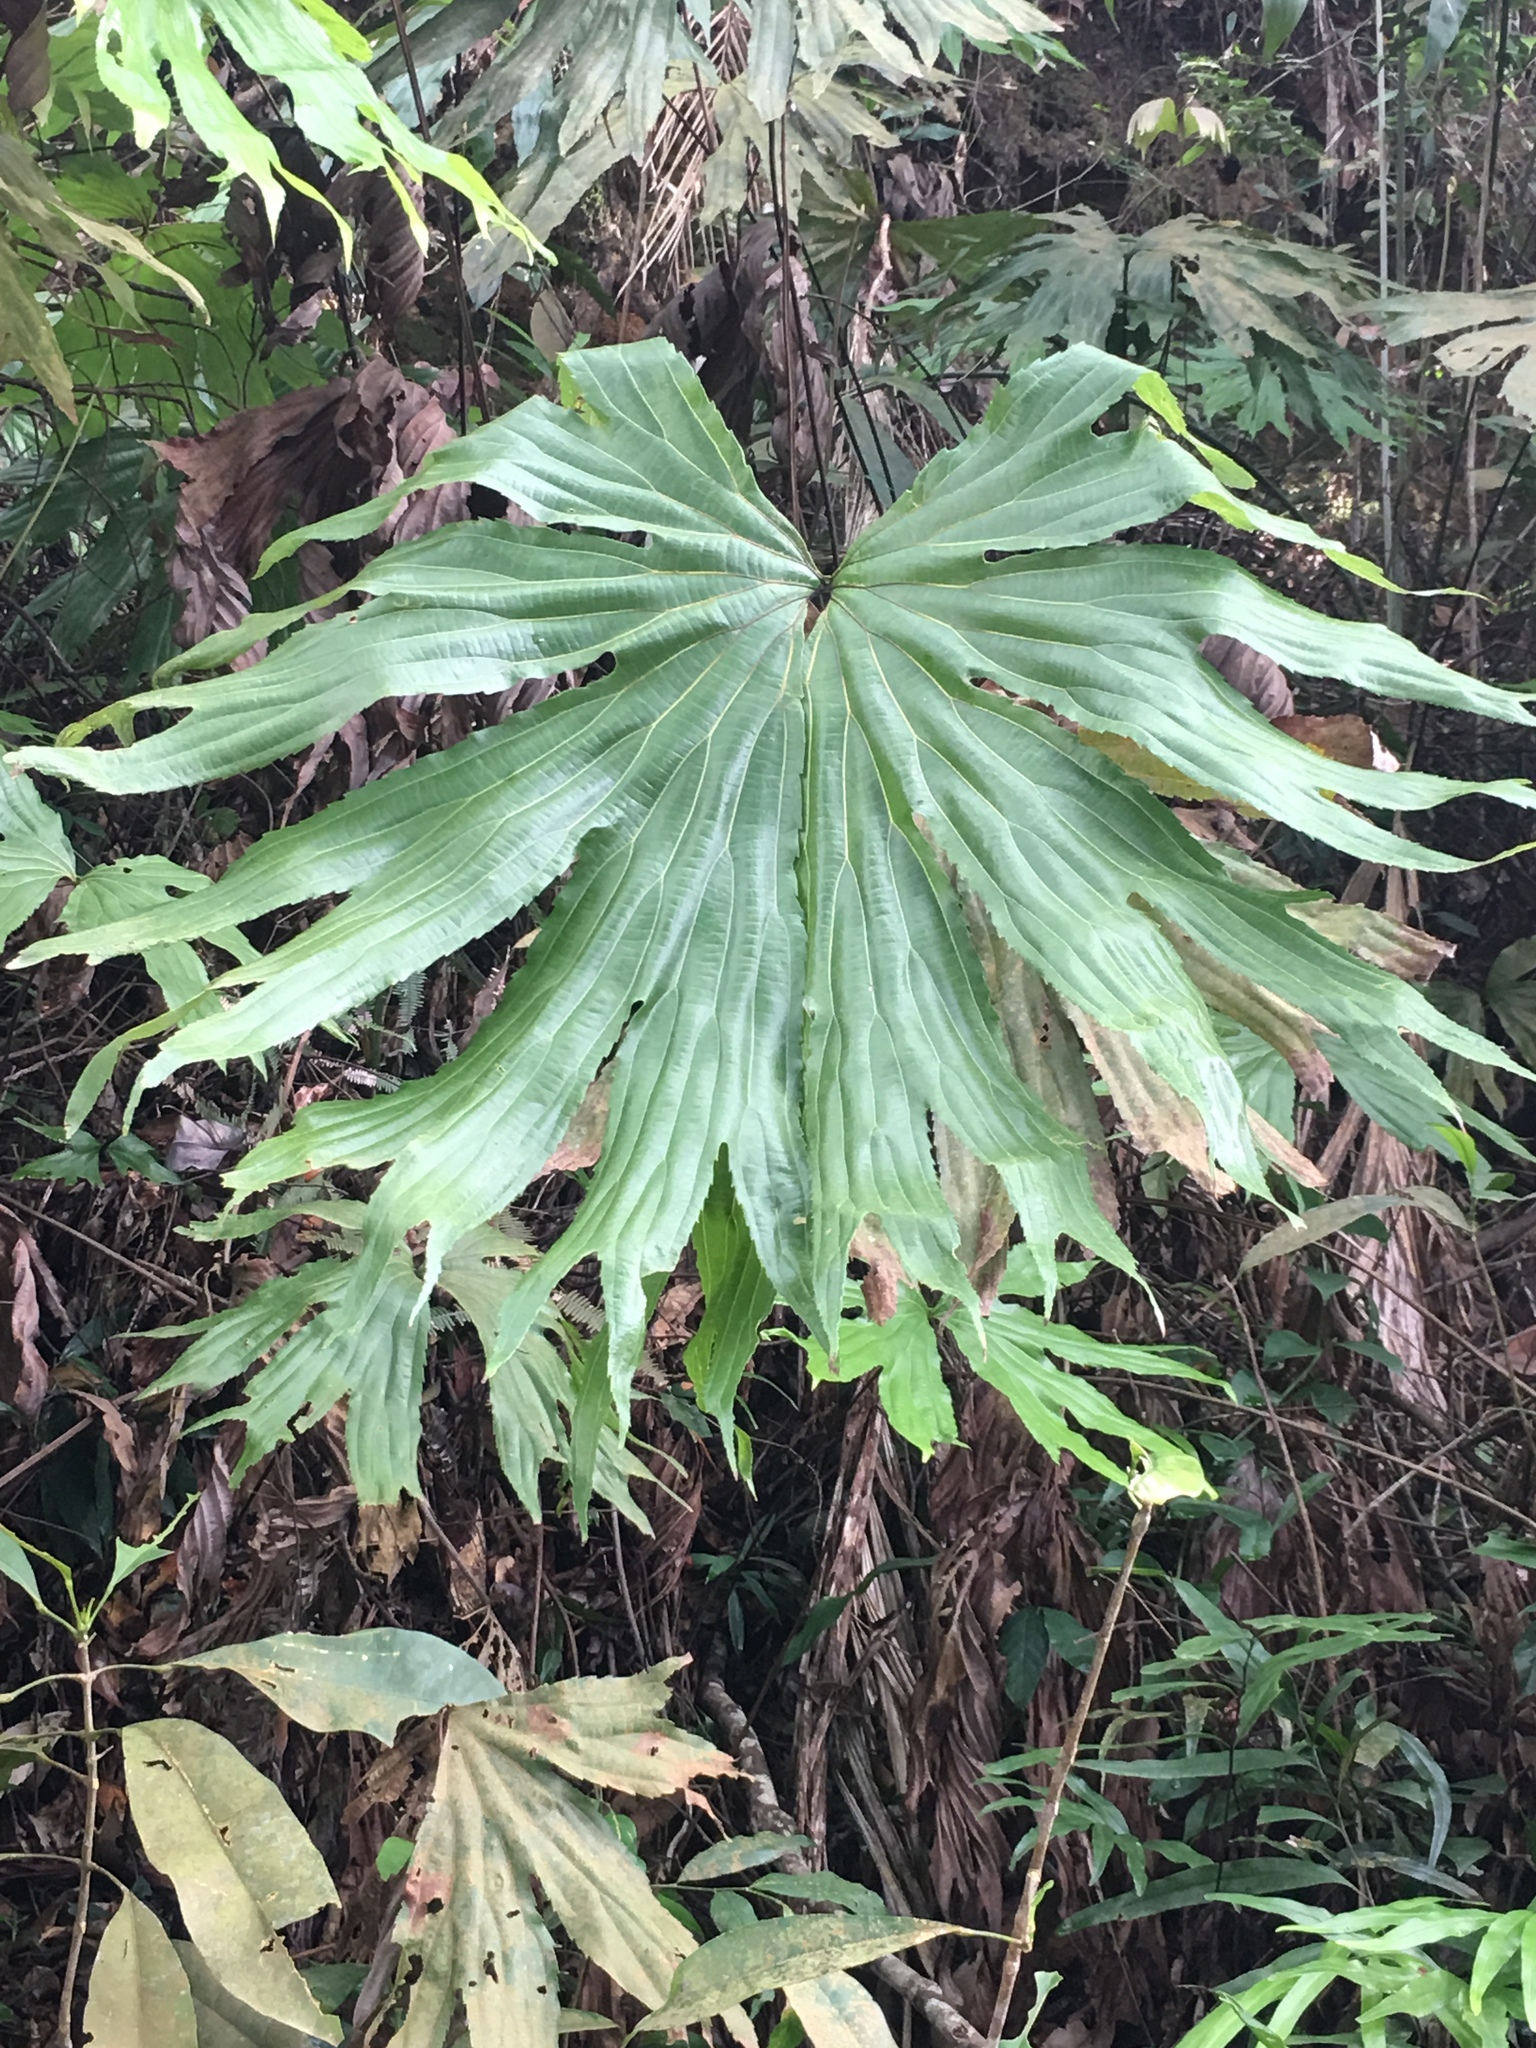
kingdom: Plantae
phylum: Tracheophyta
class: Polypodiopsida
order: Gleicheniales
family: Dipteridaceae
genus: Dipteris
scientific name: Dipteris conjugata
